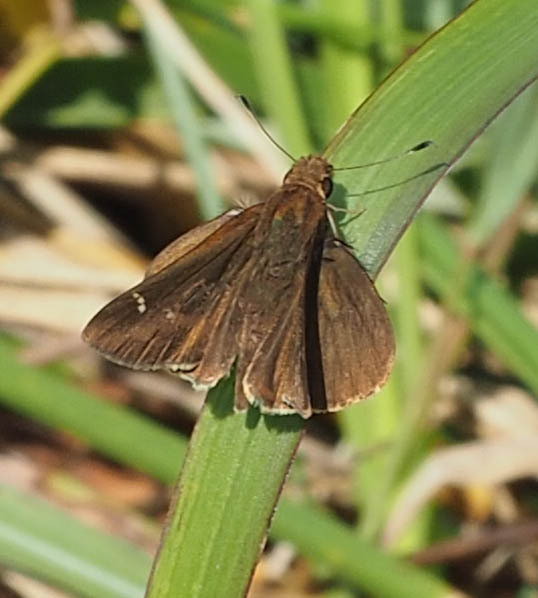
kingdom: Animalia
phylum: Arthropoda
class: Insecta
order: Lepidoptera
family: Hesperiidae
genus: Lerema
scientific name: Lerema accius
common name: Clouded skipper
